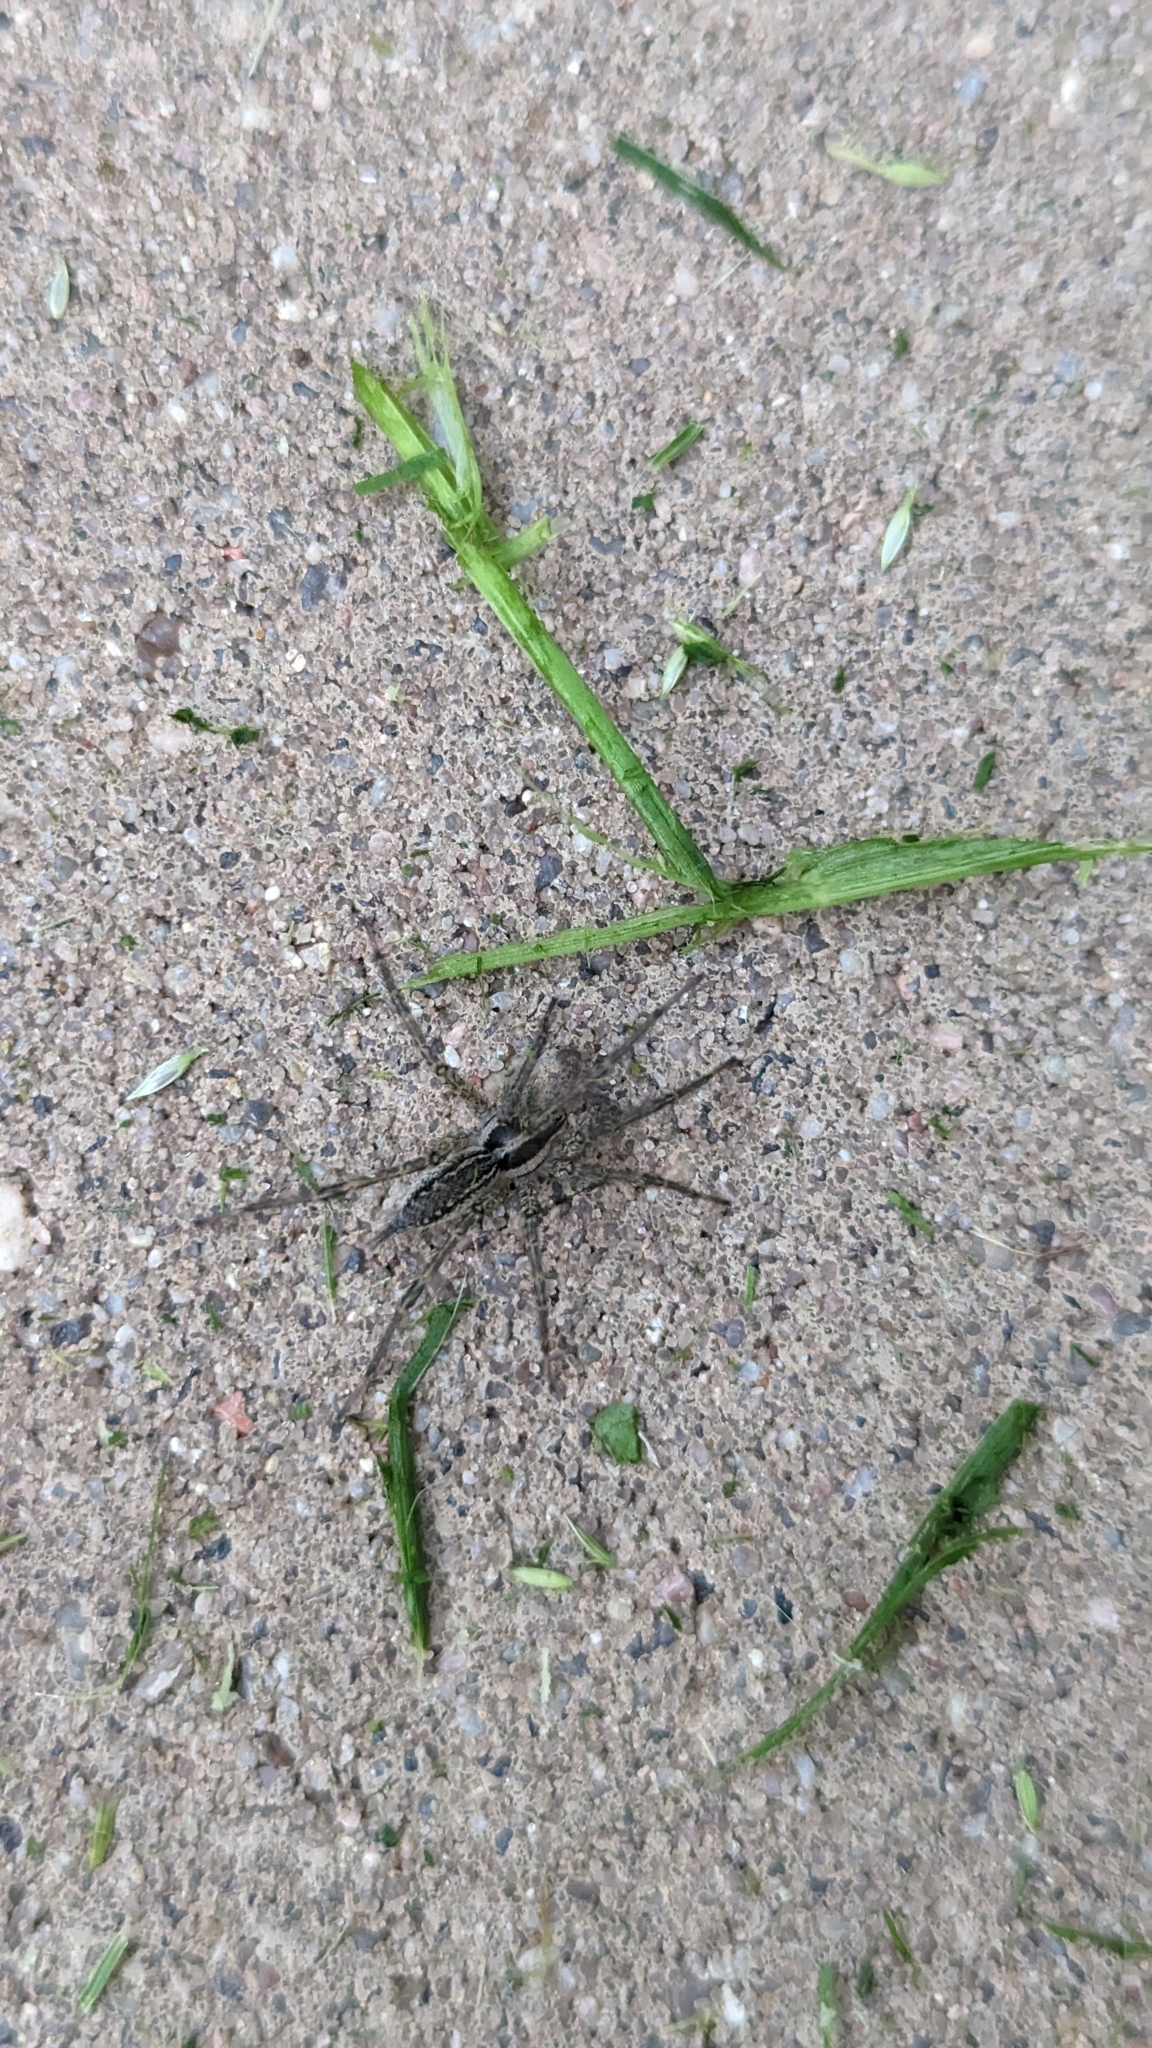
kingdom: Animalia
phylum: Arthropoda
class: Arachnida
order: Araneae
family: Agelenidae
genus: Agelenopsis
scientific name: Agelenopsis
